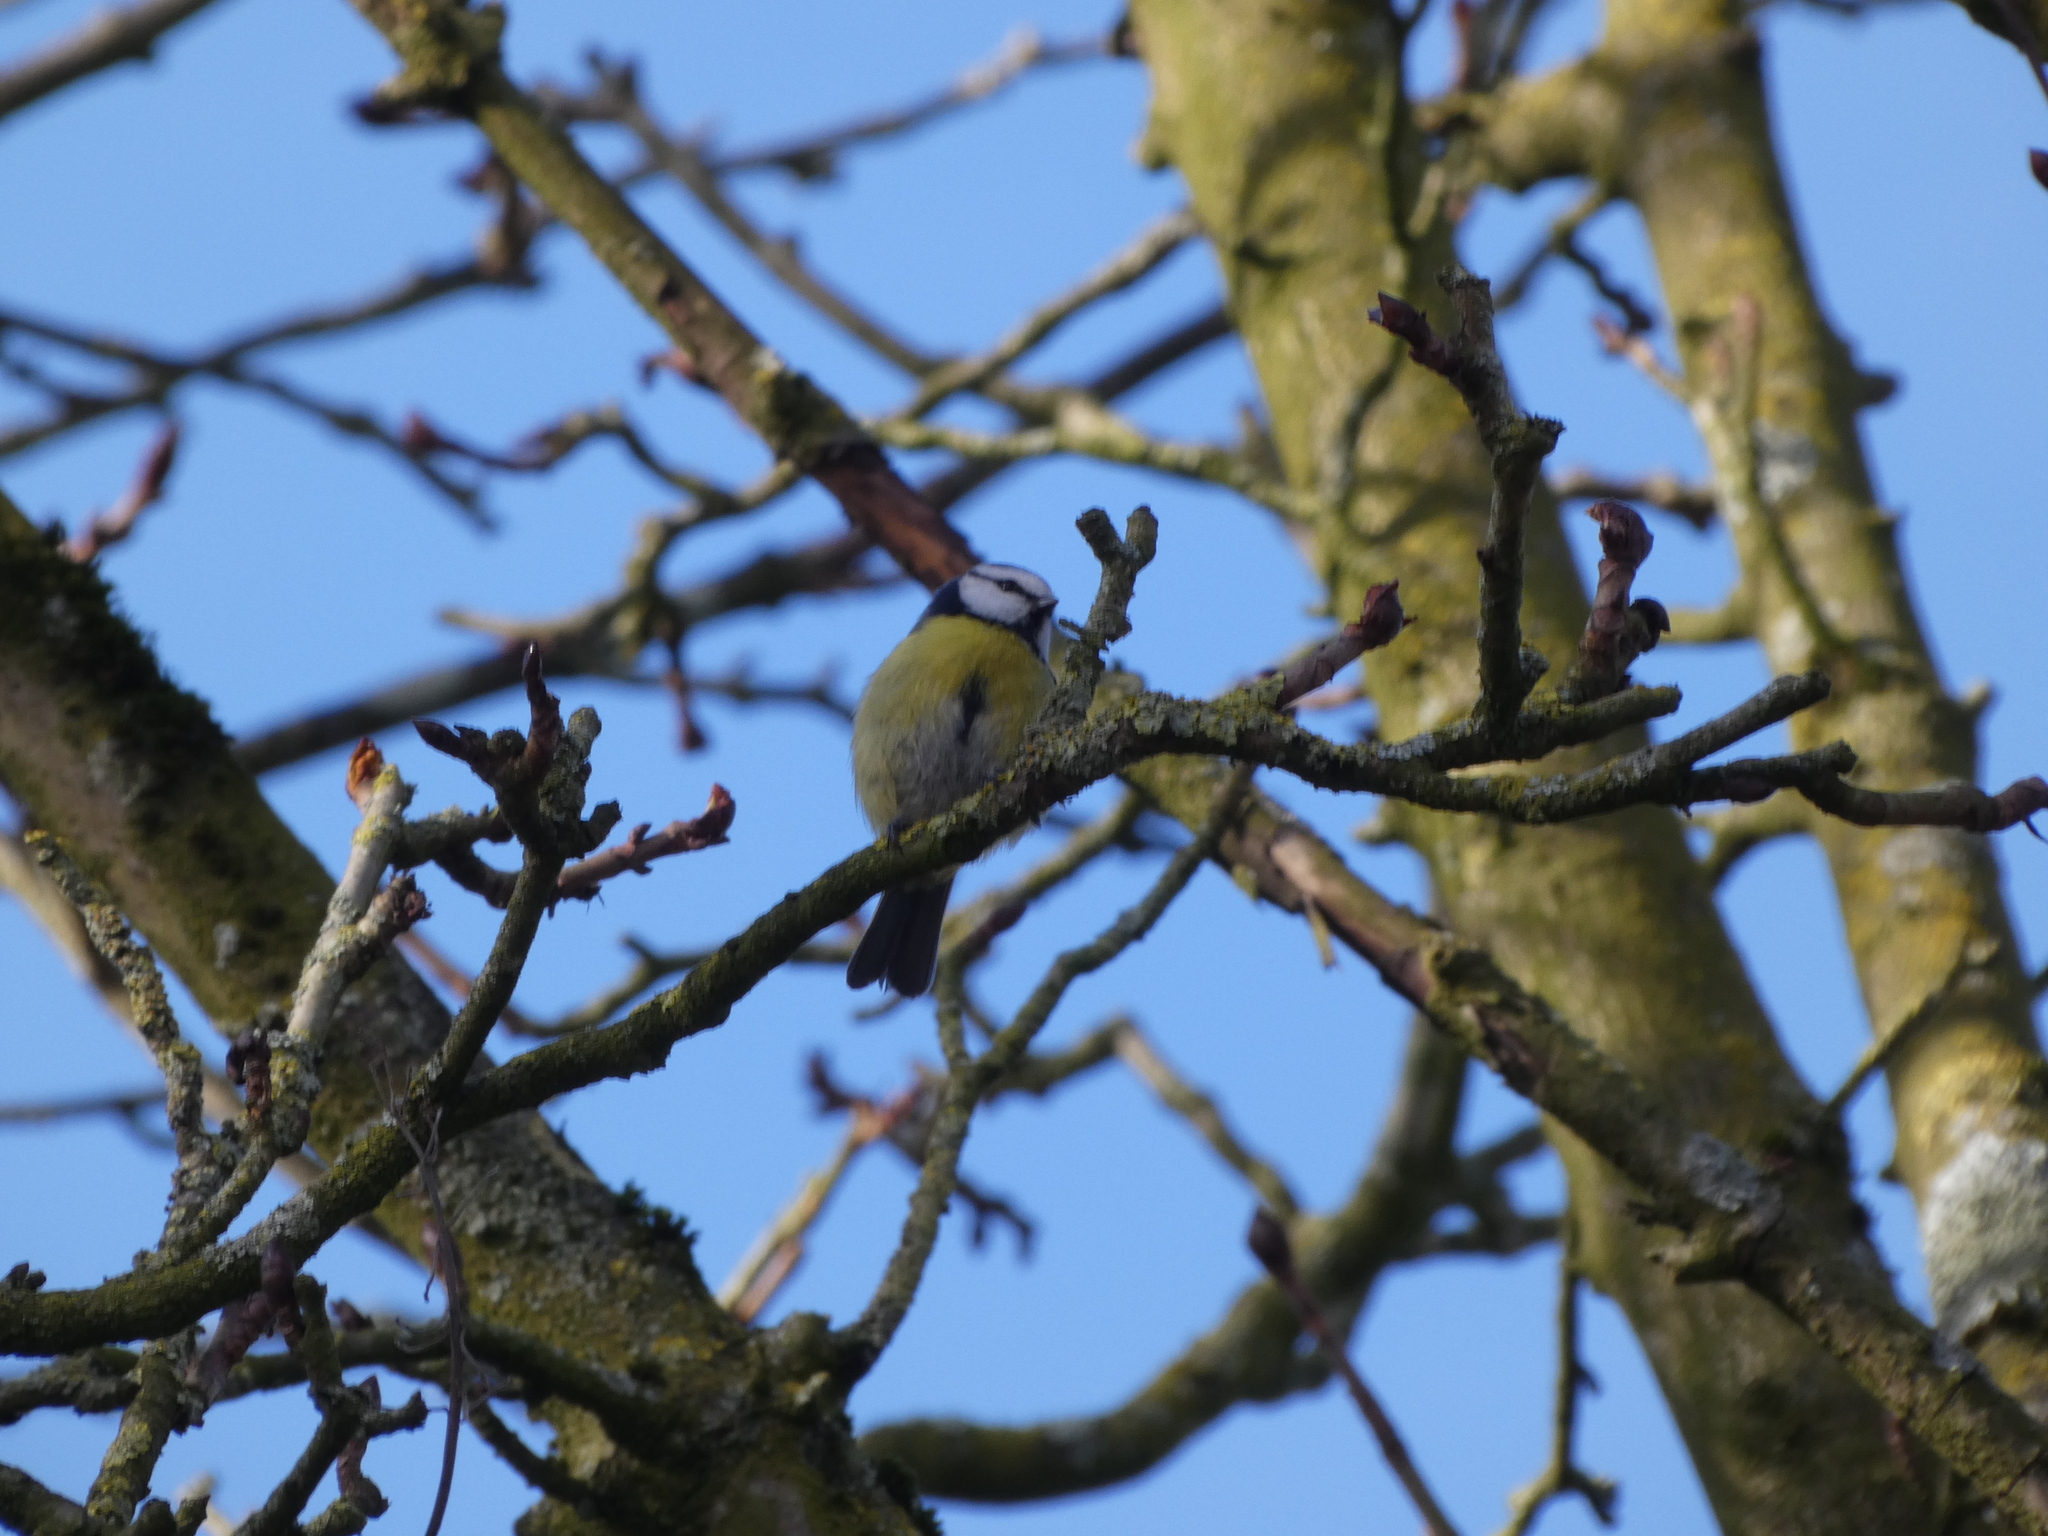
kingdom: Animalia
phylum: Chordata
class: Aves
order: Passeriformes
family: Paridae
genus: Cyanistes
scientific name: Cyanistes caeruleus
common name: Eurasian blue tit
